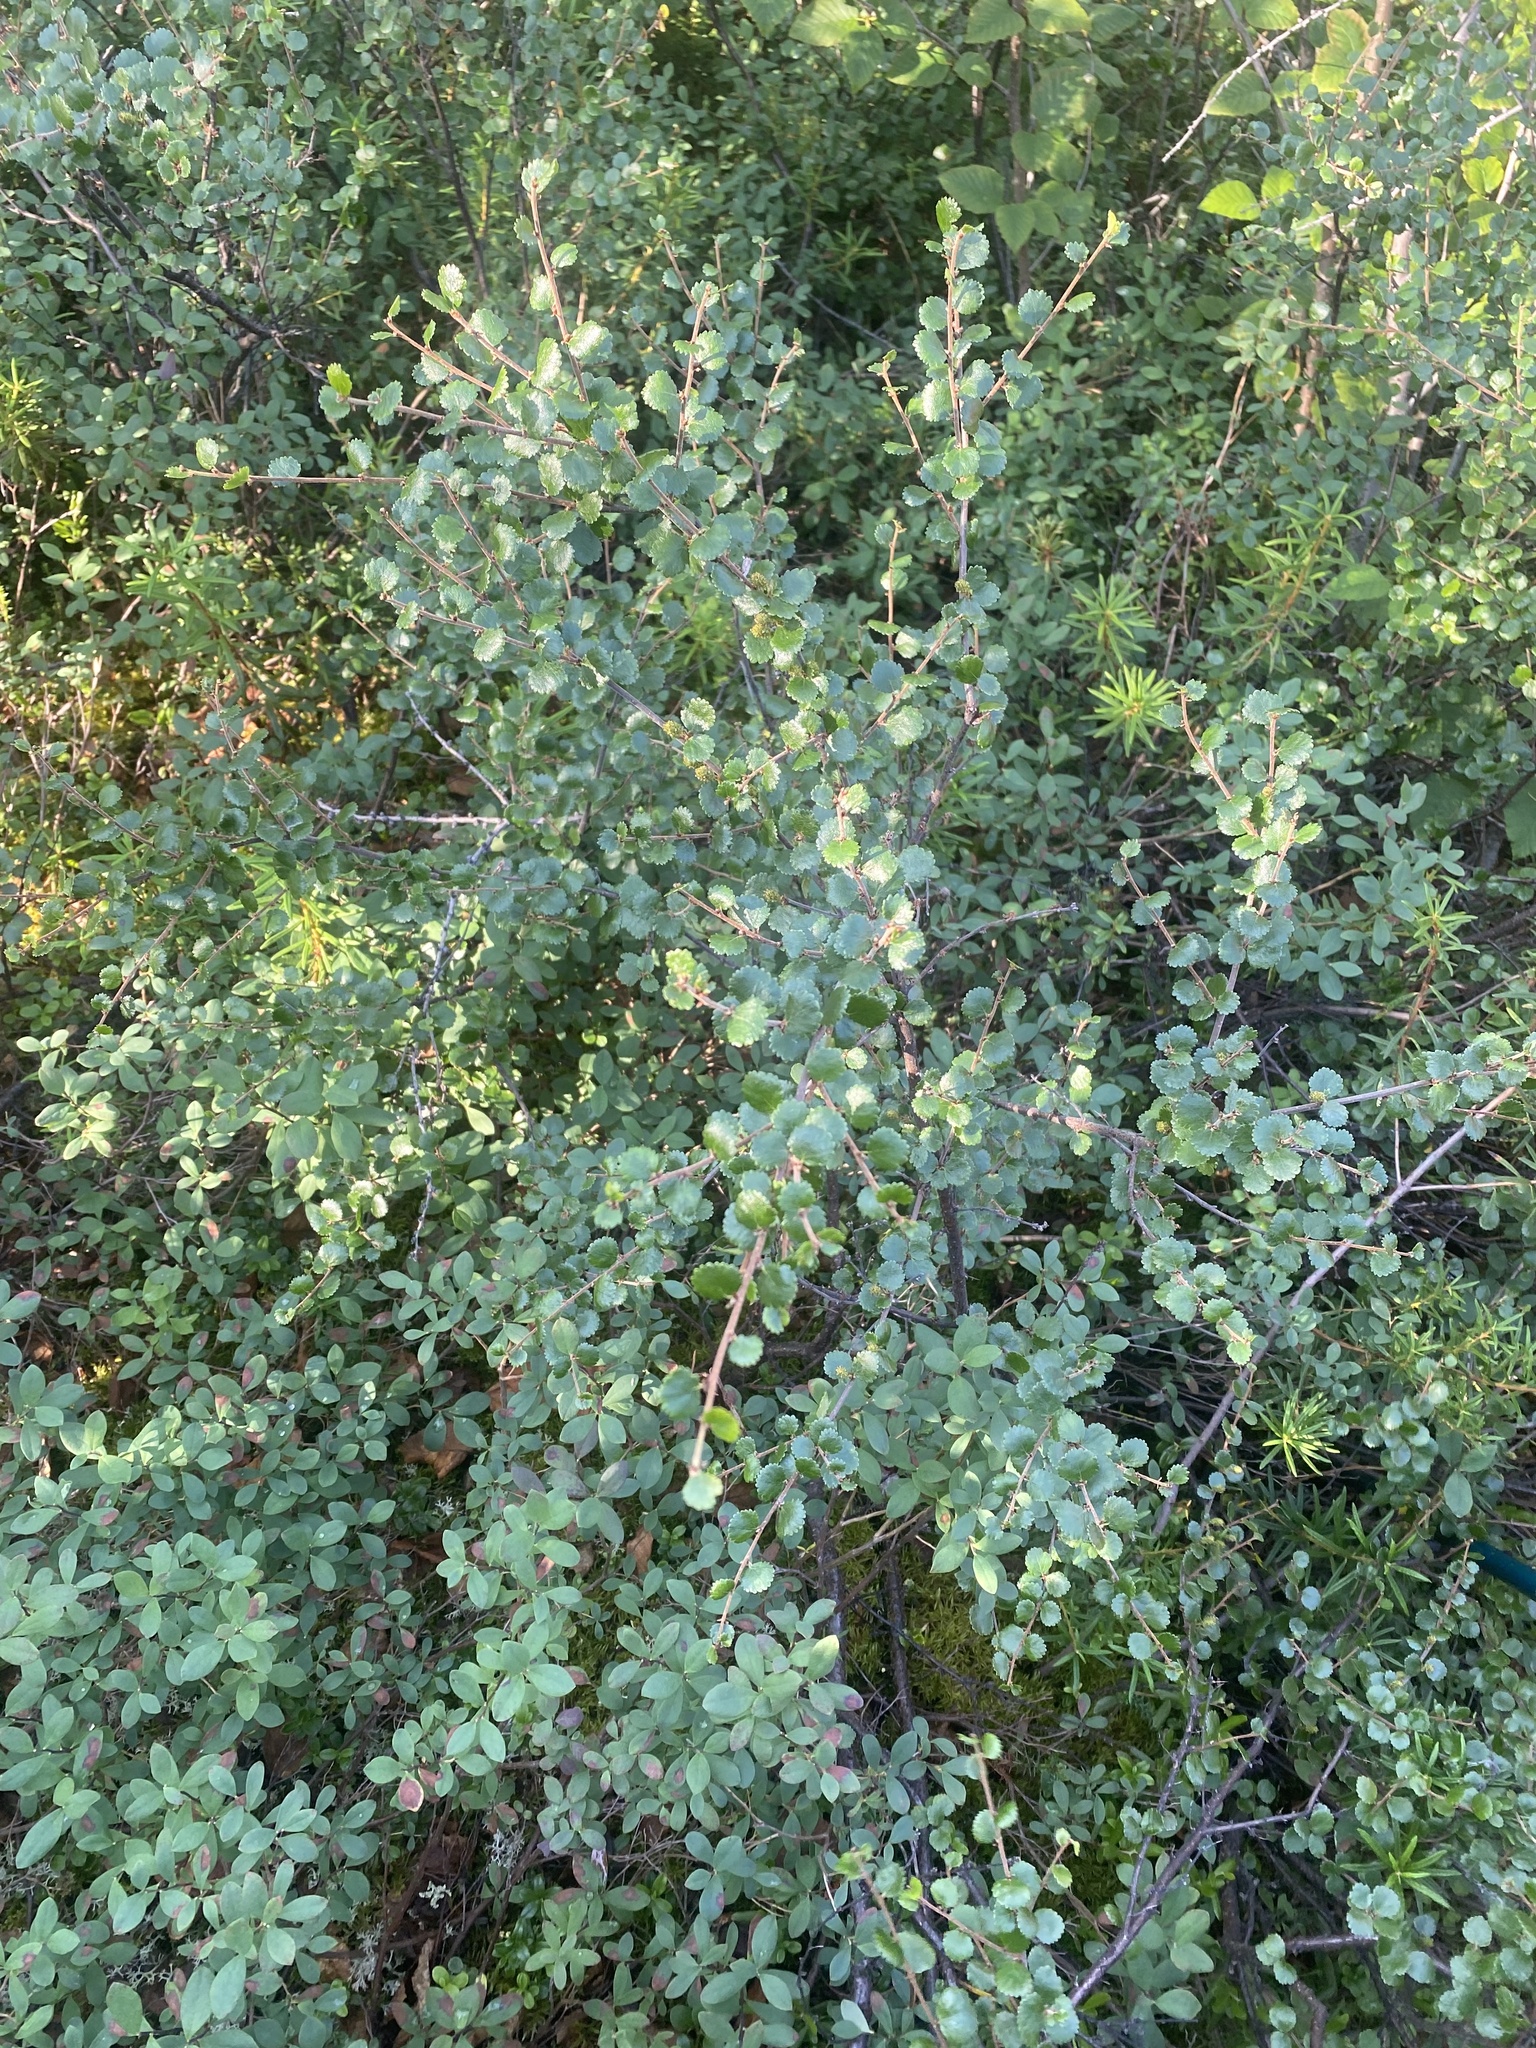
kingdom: Plantae
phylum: Tracheophyta
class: Magnoliopsida
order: Fagales
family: Betulaceae
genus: Betula
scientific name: Betula nana
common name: Arctic dwarf birch
